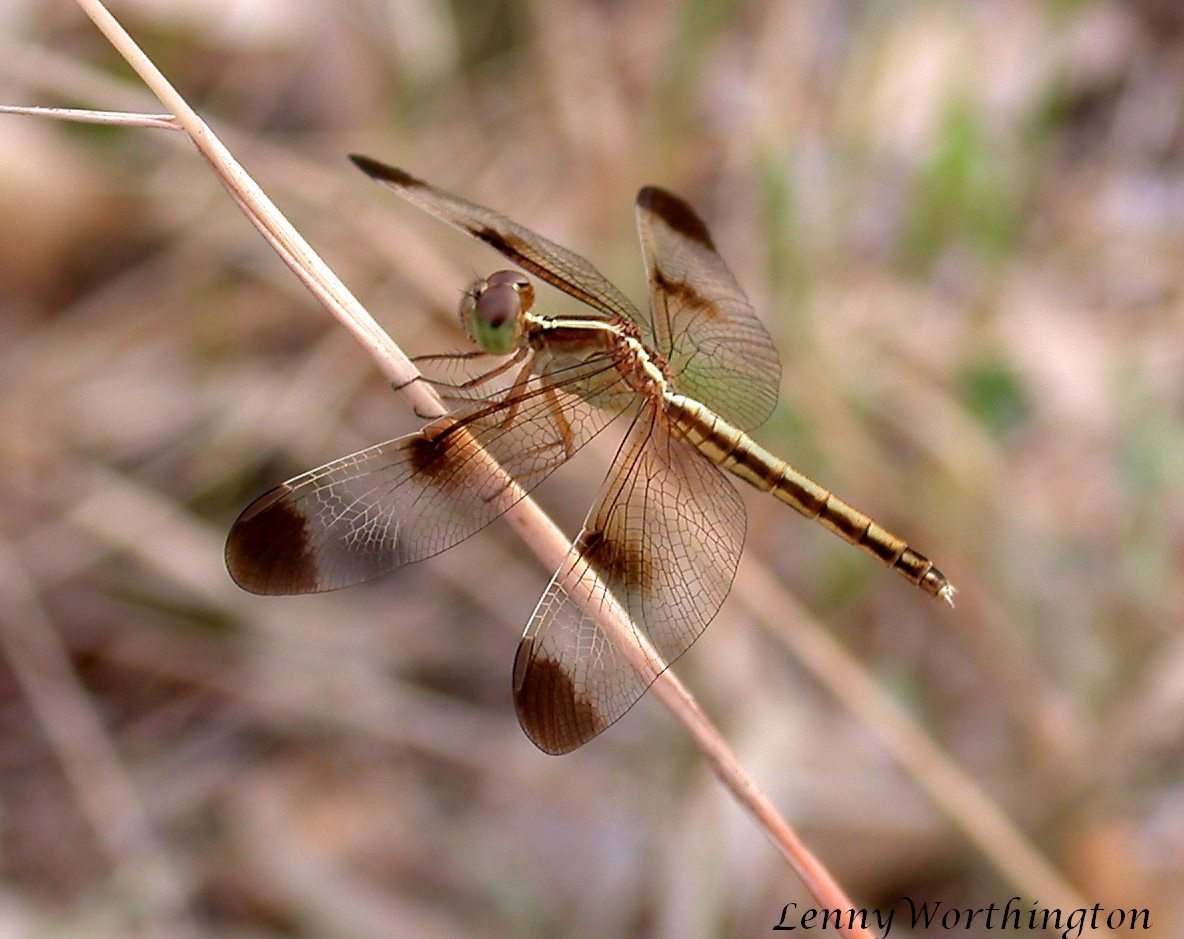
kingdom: Animalia
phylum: Arthropoda
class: Insecta
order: Odonata
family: Libellulidae
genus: Neurothemis
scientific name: Neurothemis tullia
